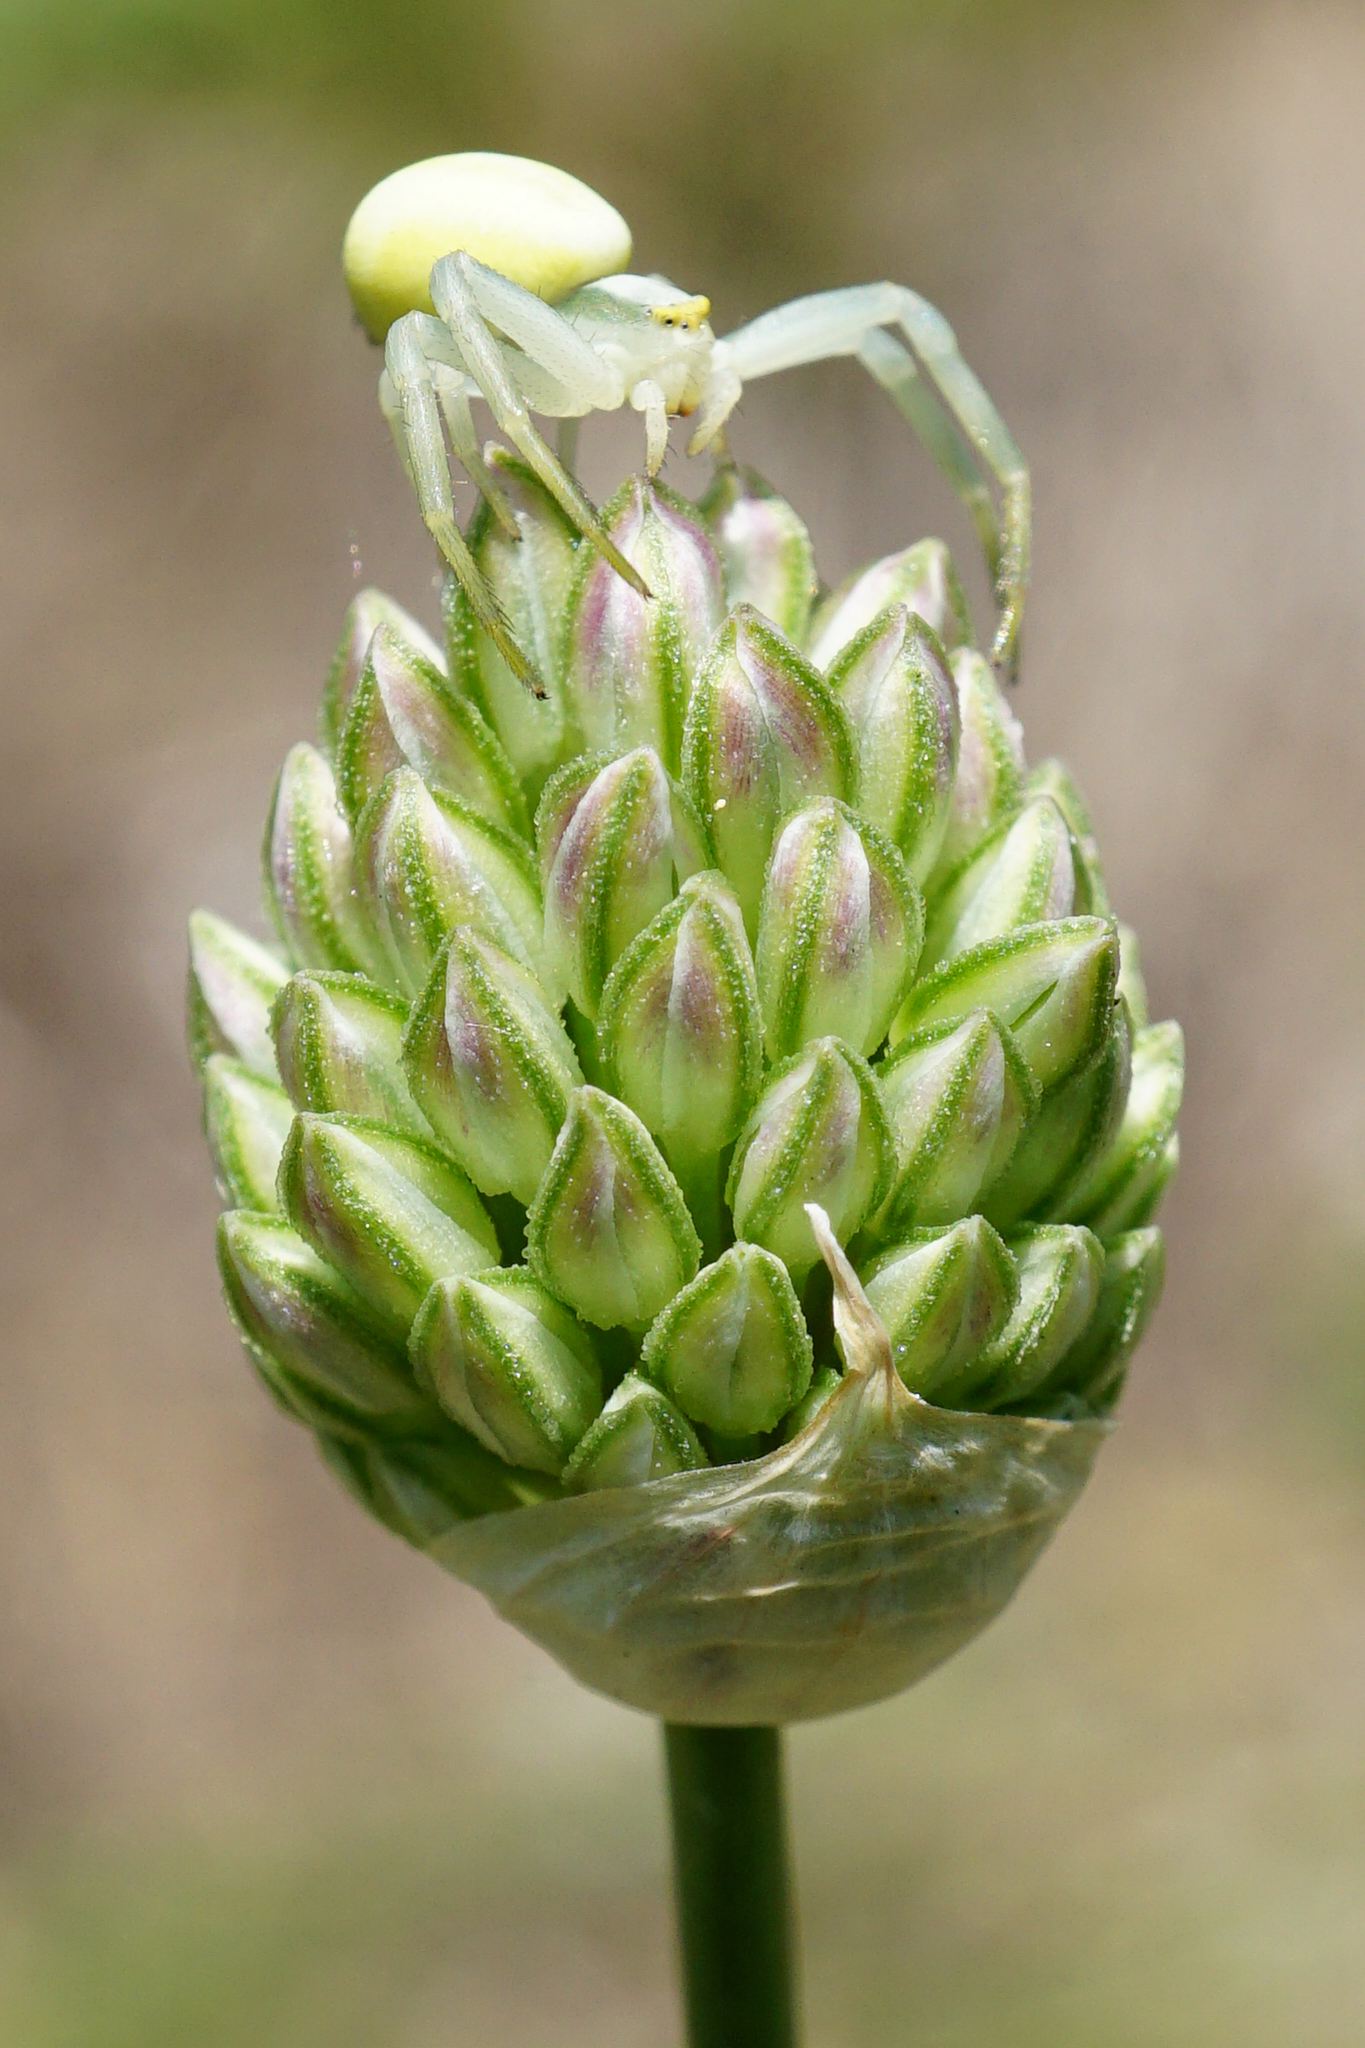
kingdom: Plantae
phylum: Tracheophyta
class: Liliopsida
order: Asparagales
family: Amaryllidaceae
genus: Allium
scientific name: Allium sphaerocephalon
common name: Round-headed leek
